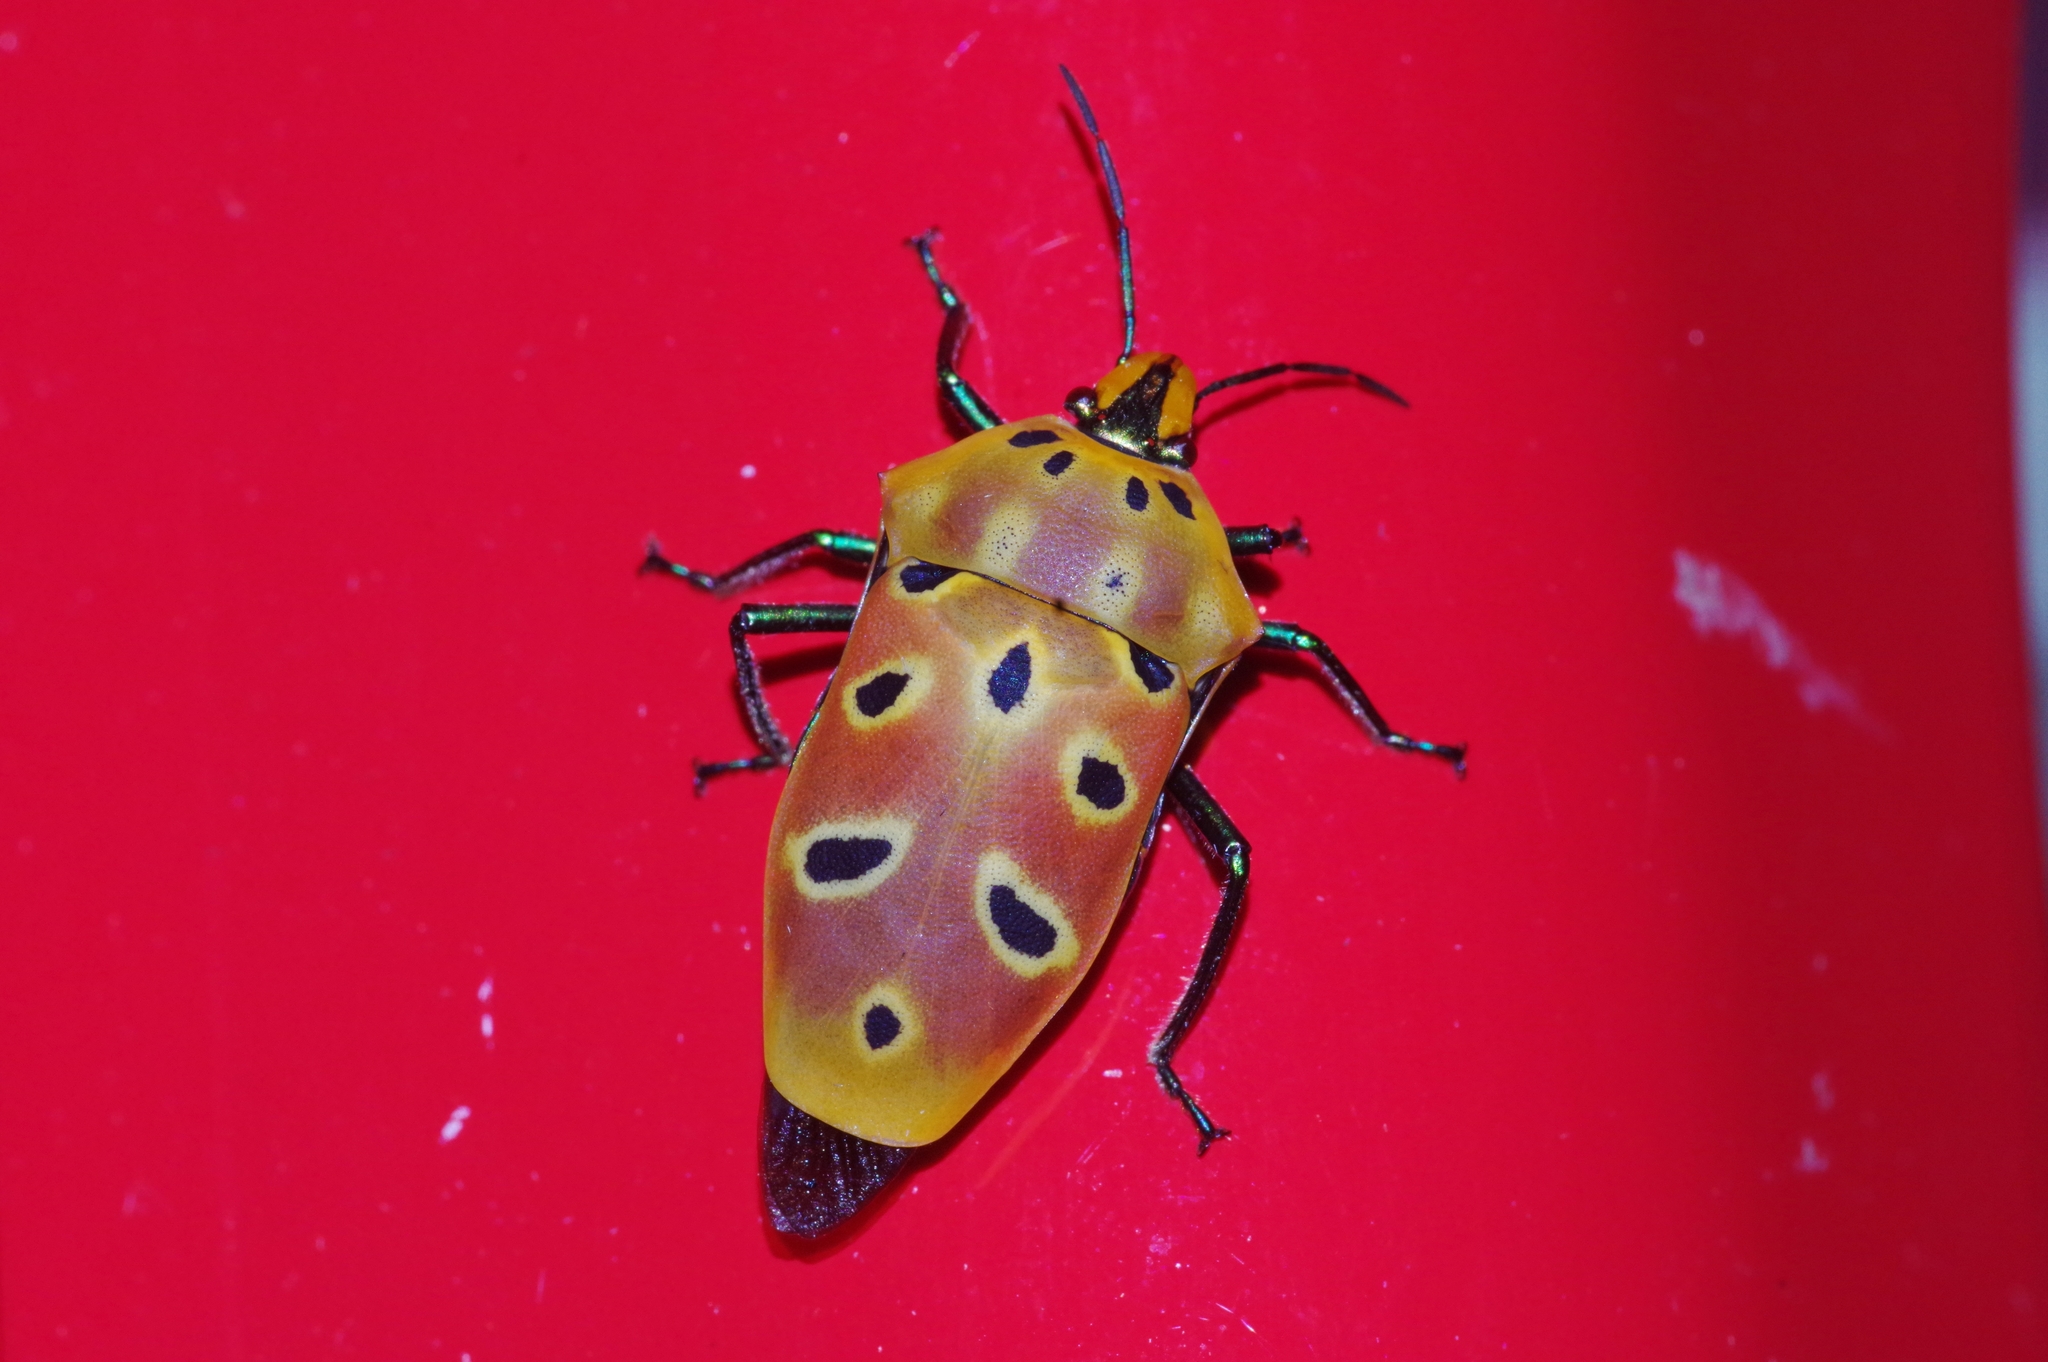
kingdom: Animalia
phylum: Arthropoda
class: Insecta
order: Hemiptera
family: Scutelleridae
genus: Cantao
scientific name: Cantao ocellatus
